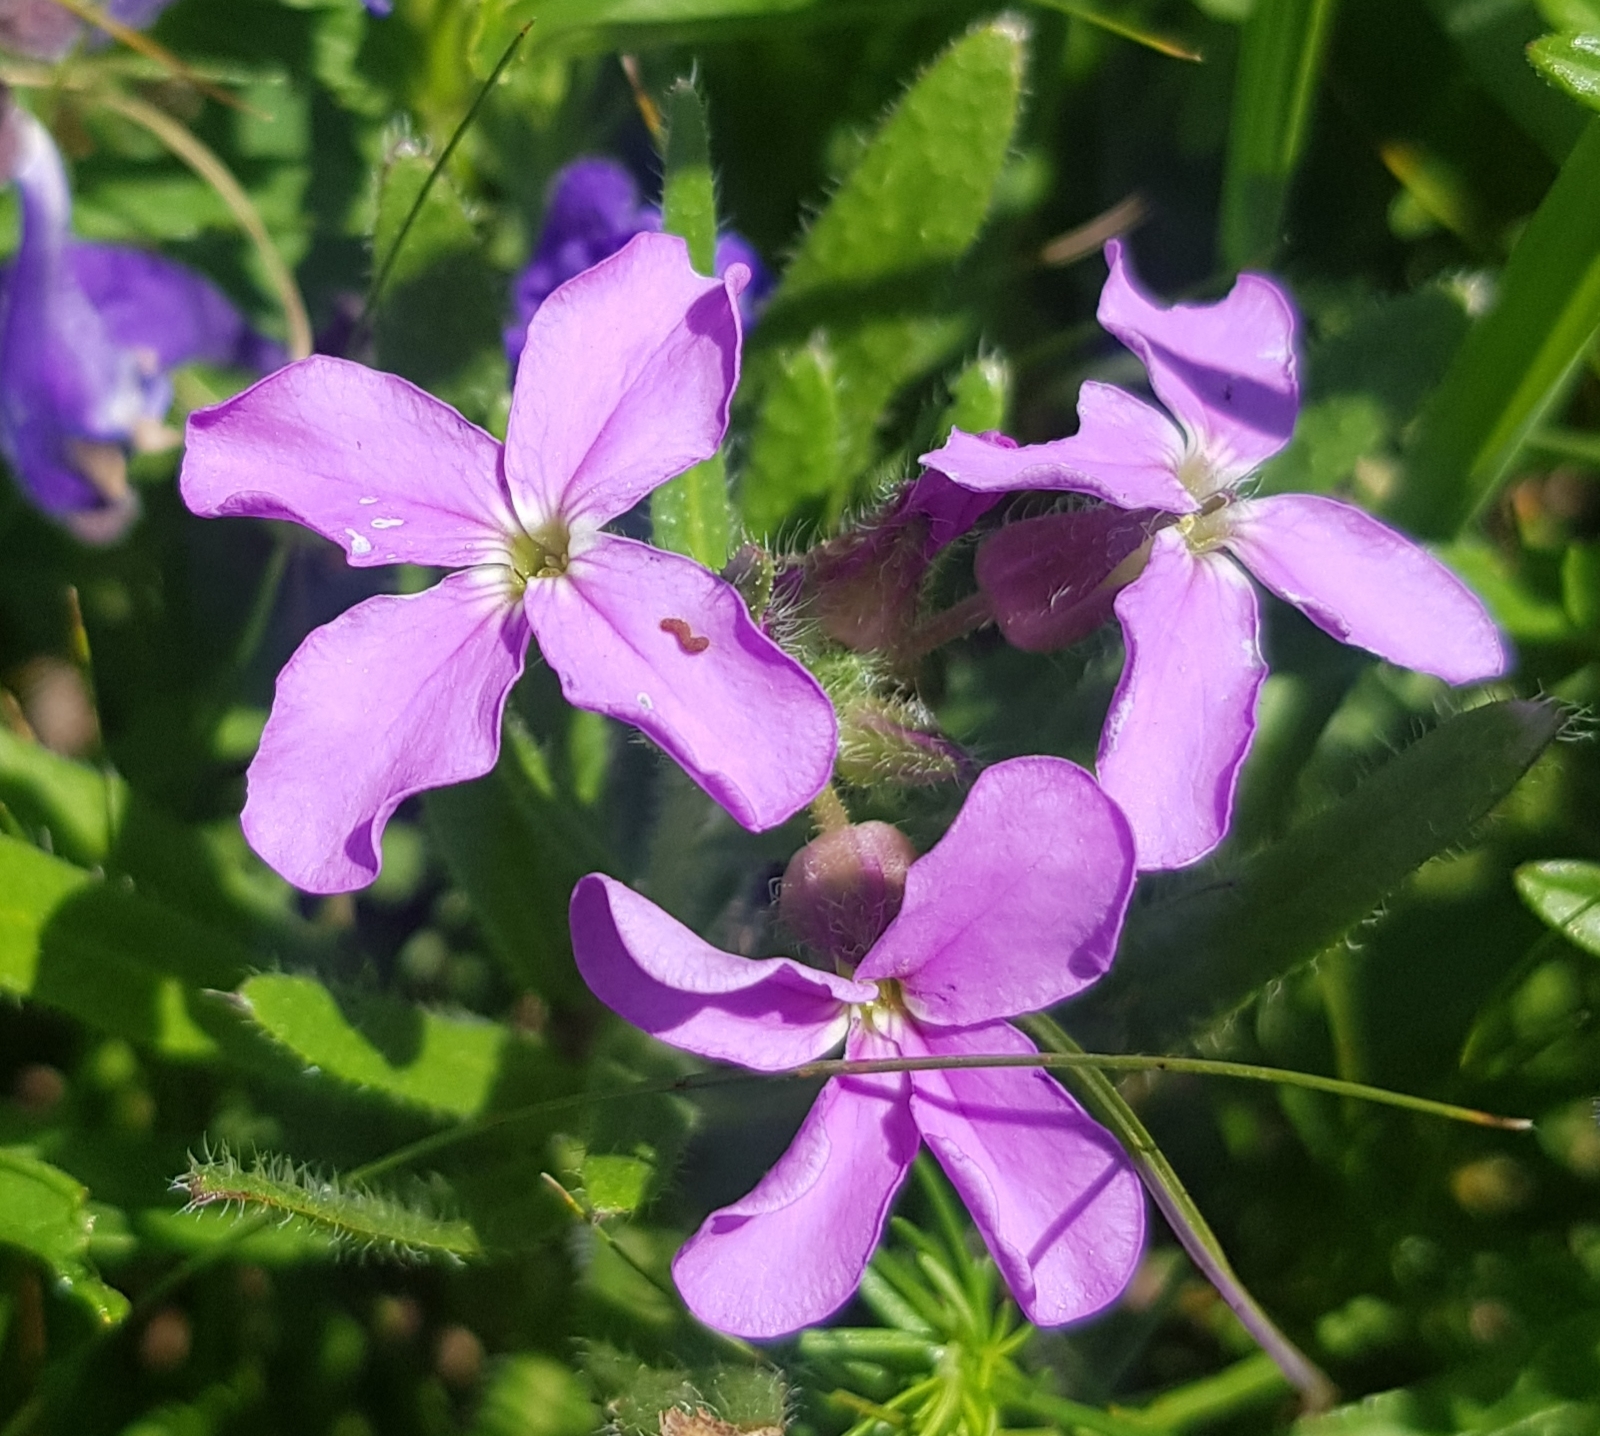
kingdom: Plantae
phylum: Tracheophyta
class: Magnoliopsida
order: Brassicales
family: Brassicaceae
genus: Clausia
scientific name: Clausia aprica
